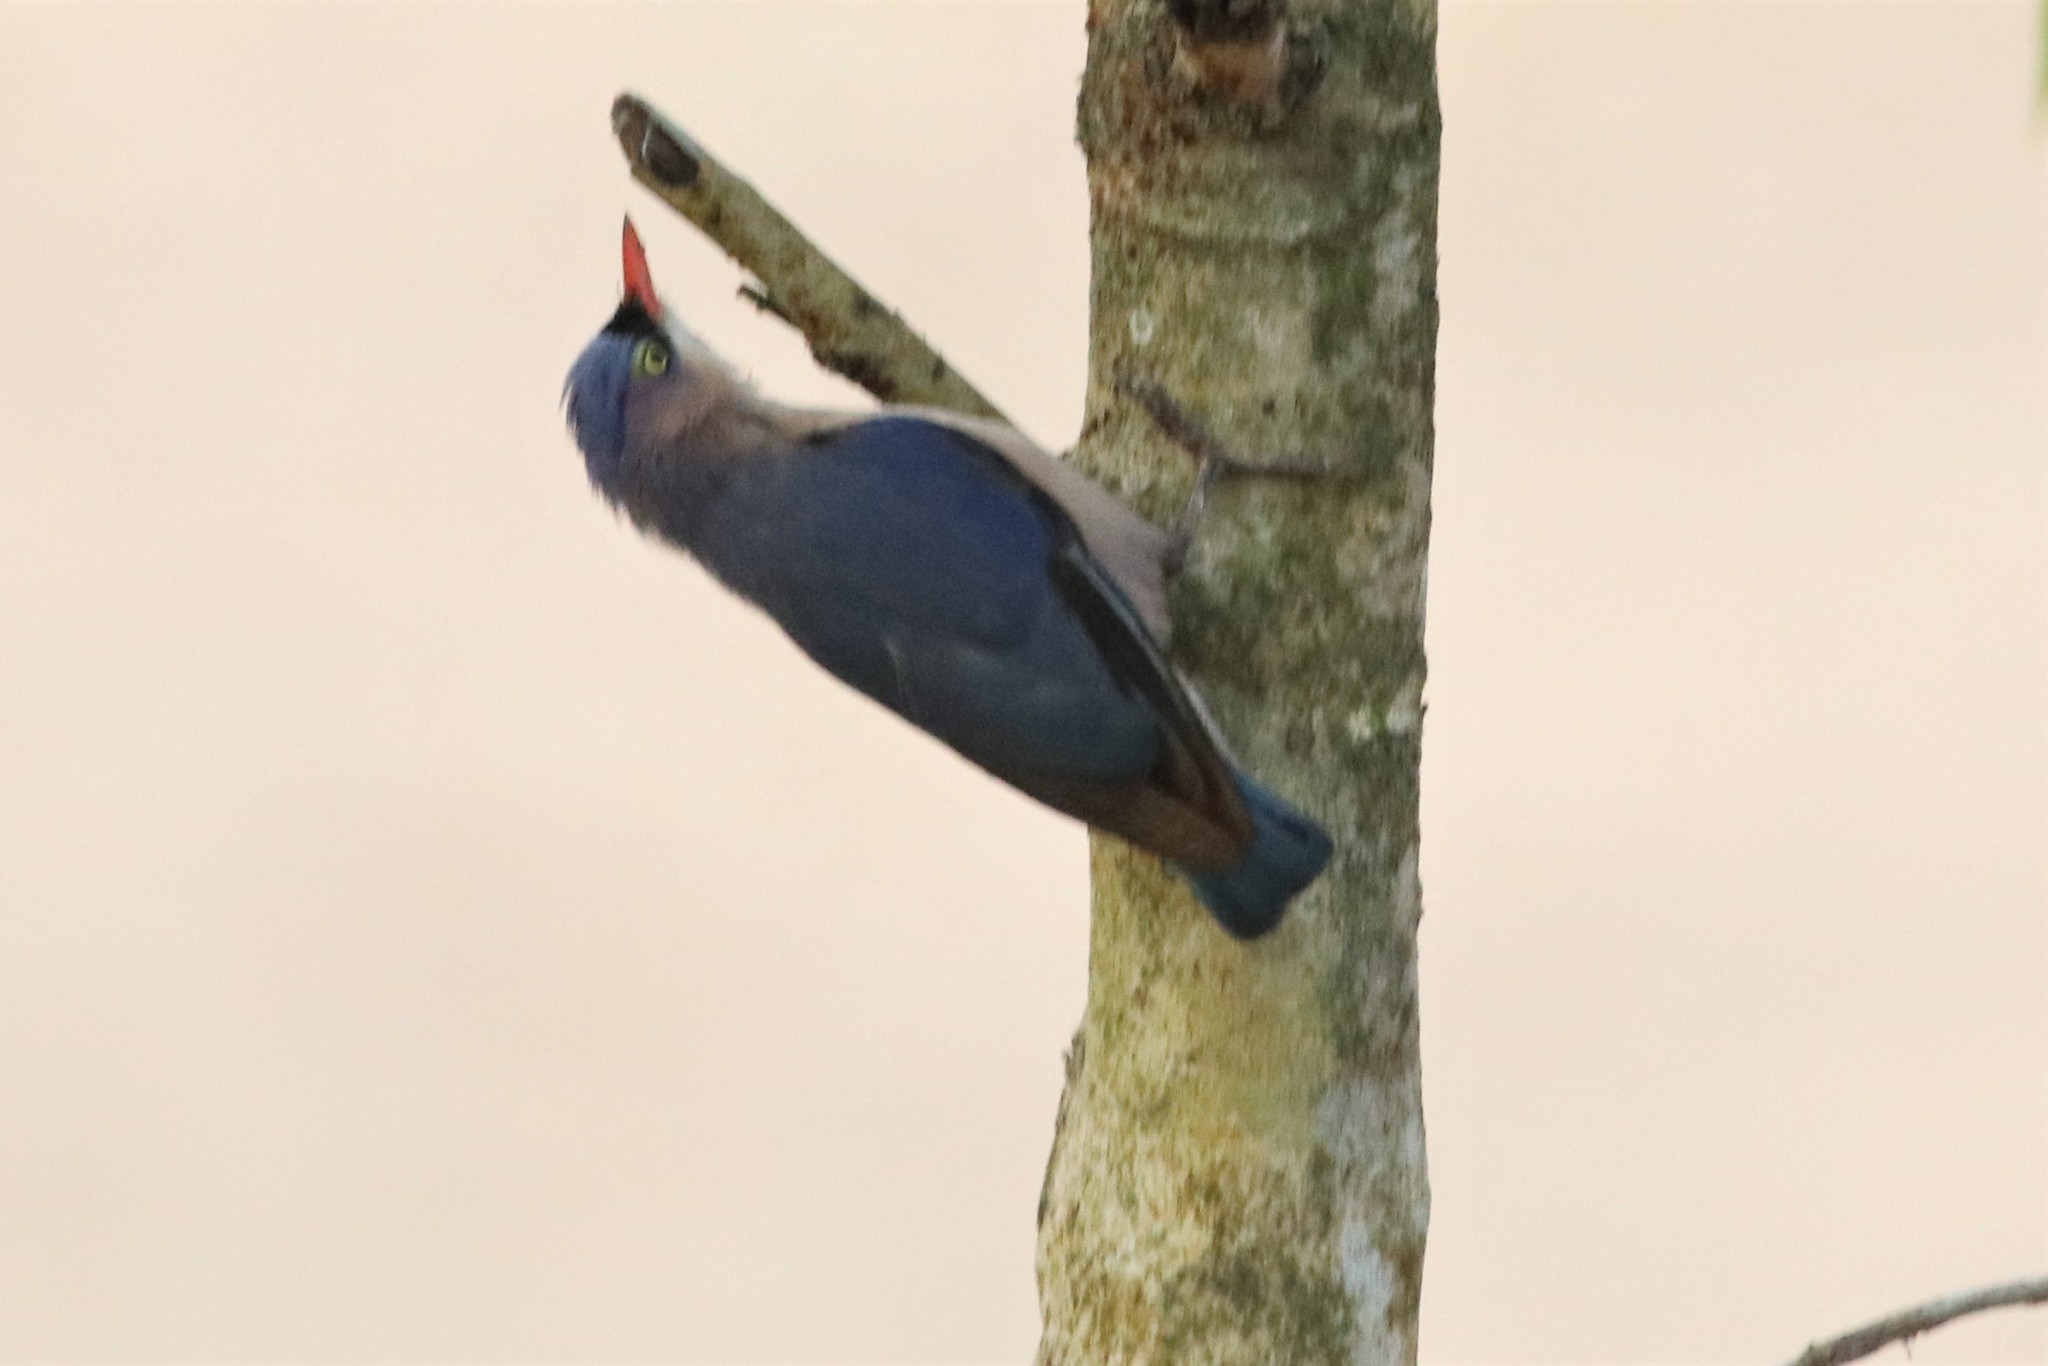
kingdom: Animalia
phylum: Chordata
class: Aves
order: Passeriformes
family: Sittidae
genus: Sitta
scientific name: Sitta frontalis
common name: Velvet-fronted nuthatch
